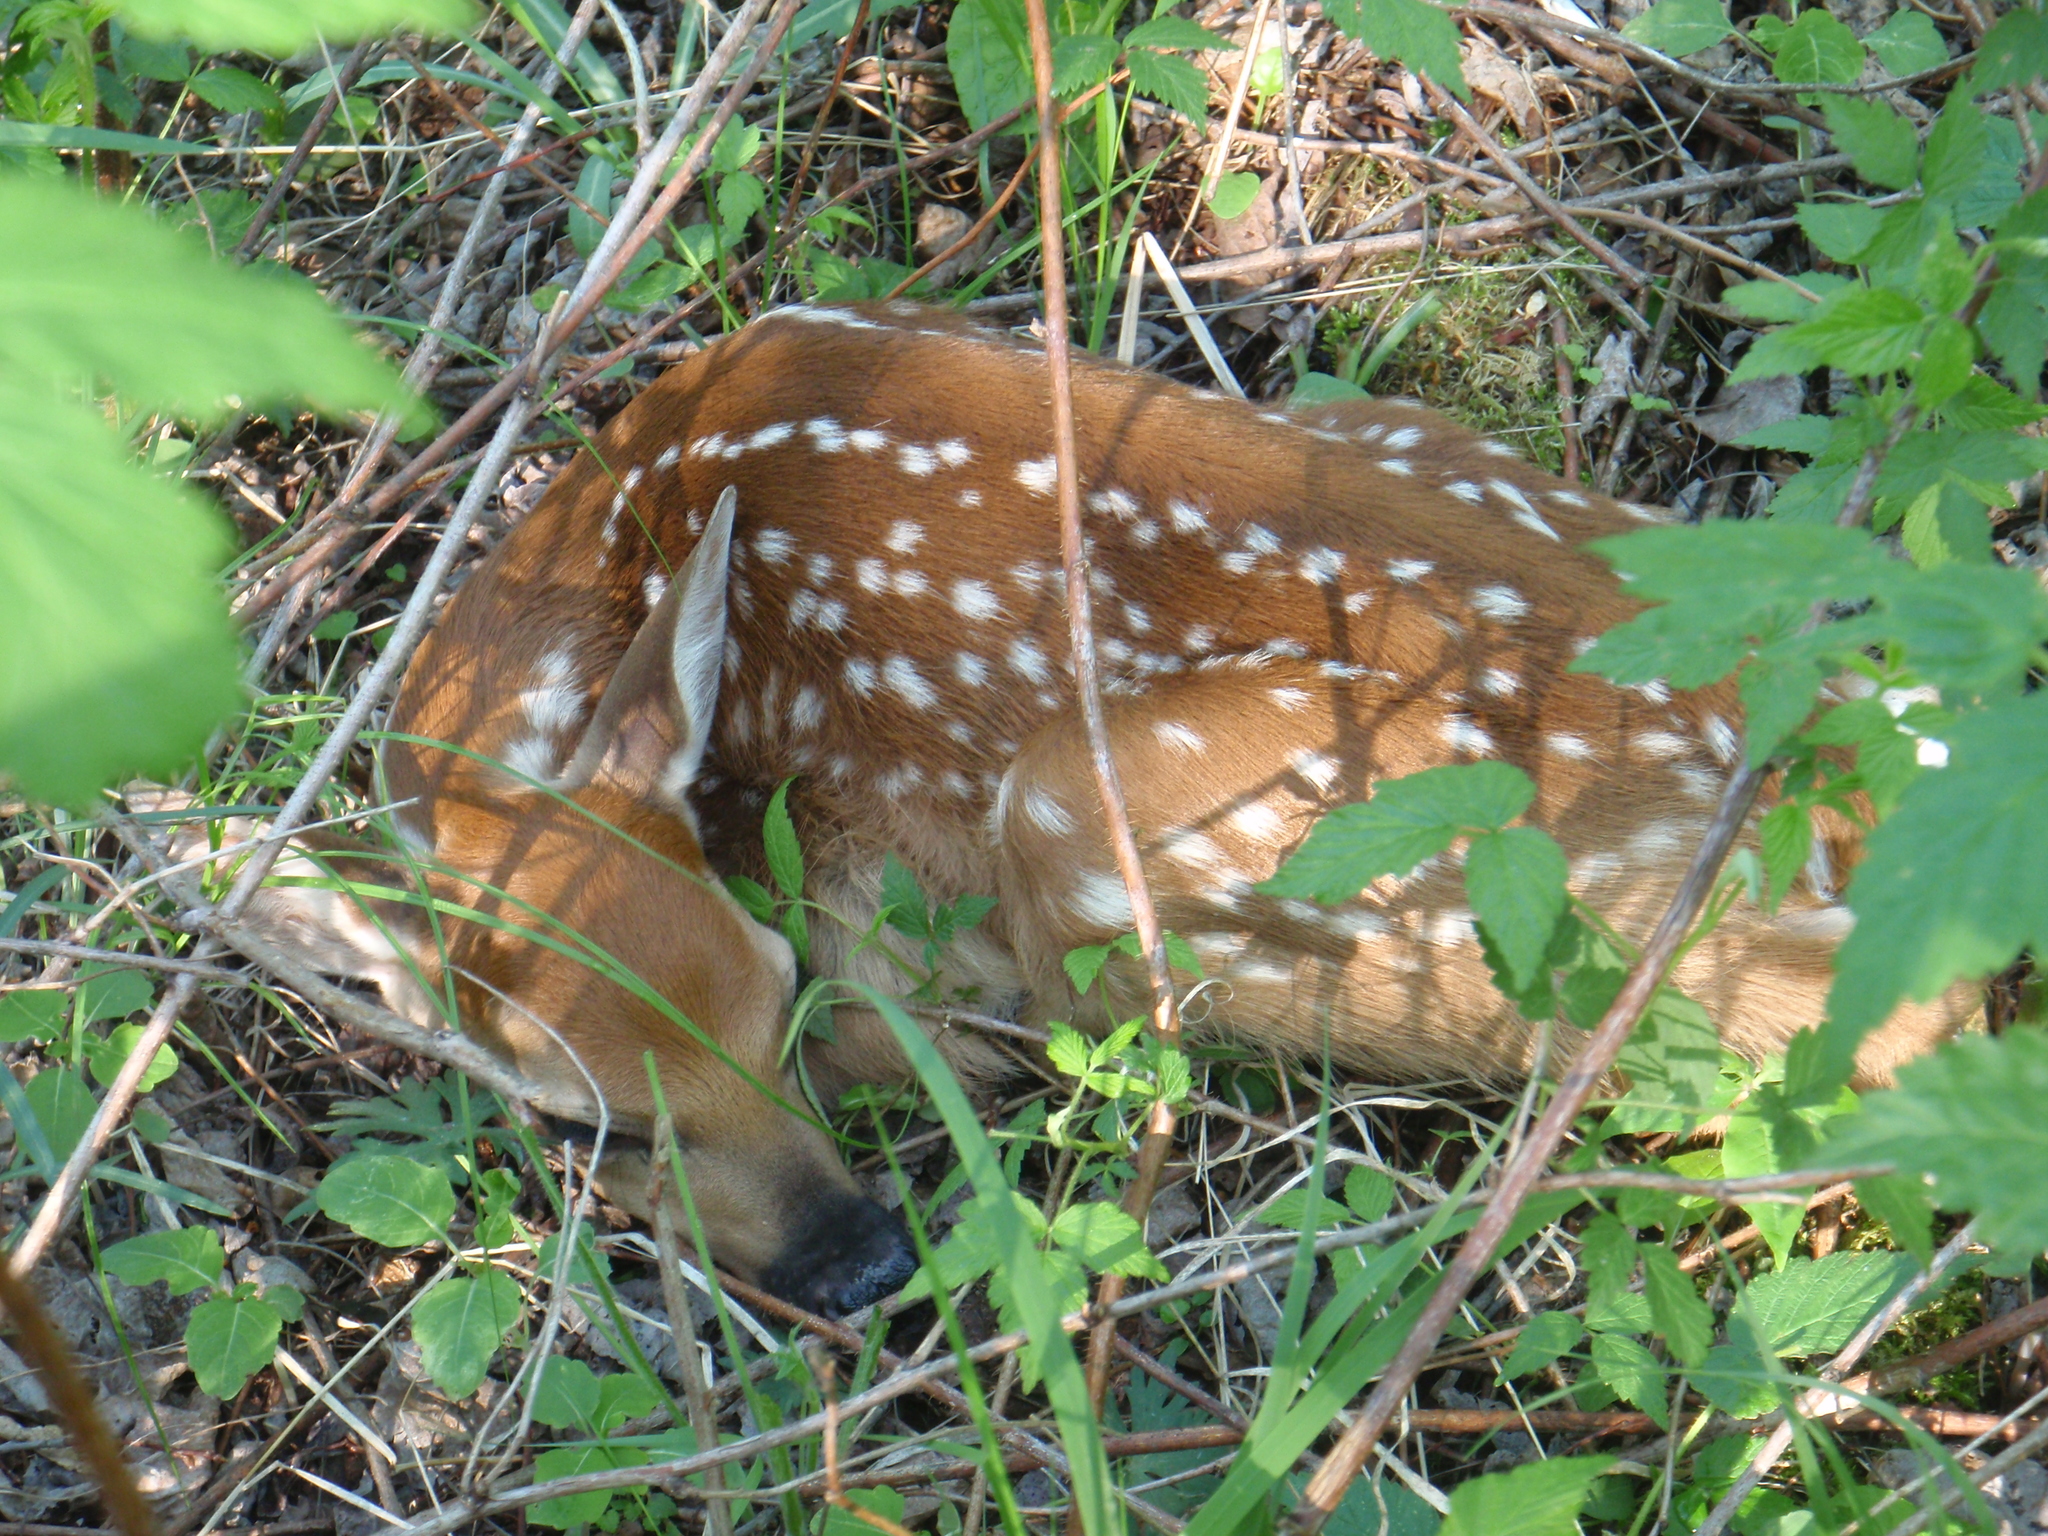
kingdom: Animalia
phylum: Chordata
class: Mammalia
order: Artiodactyla
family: Cervidae
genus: Odocoileus
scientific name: Odocoileus virginianus
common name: White-tailed deer
